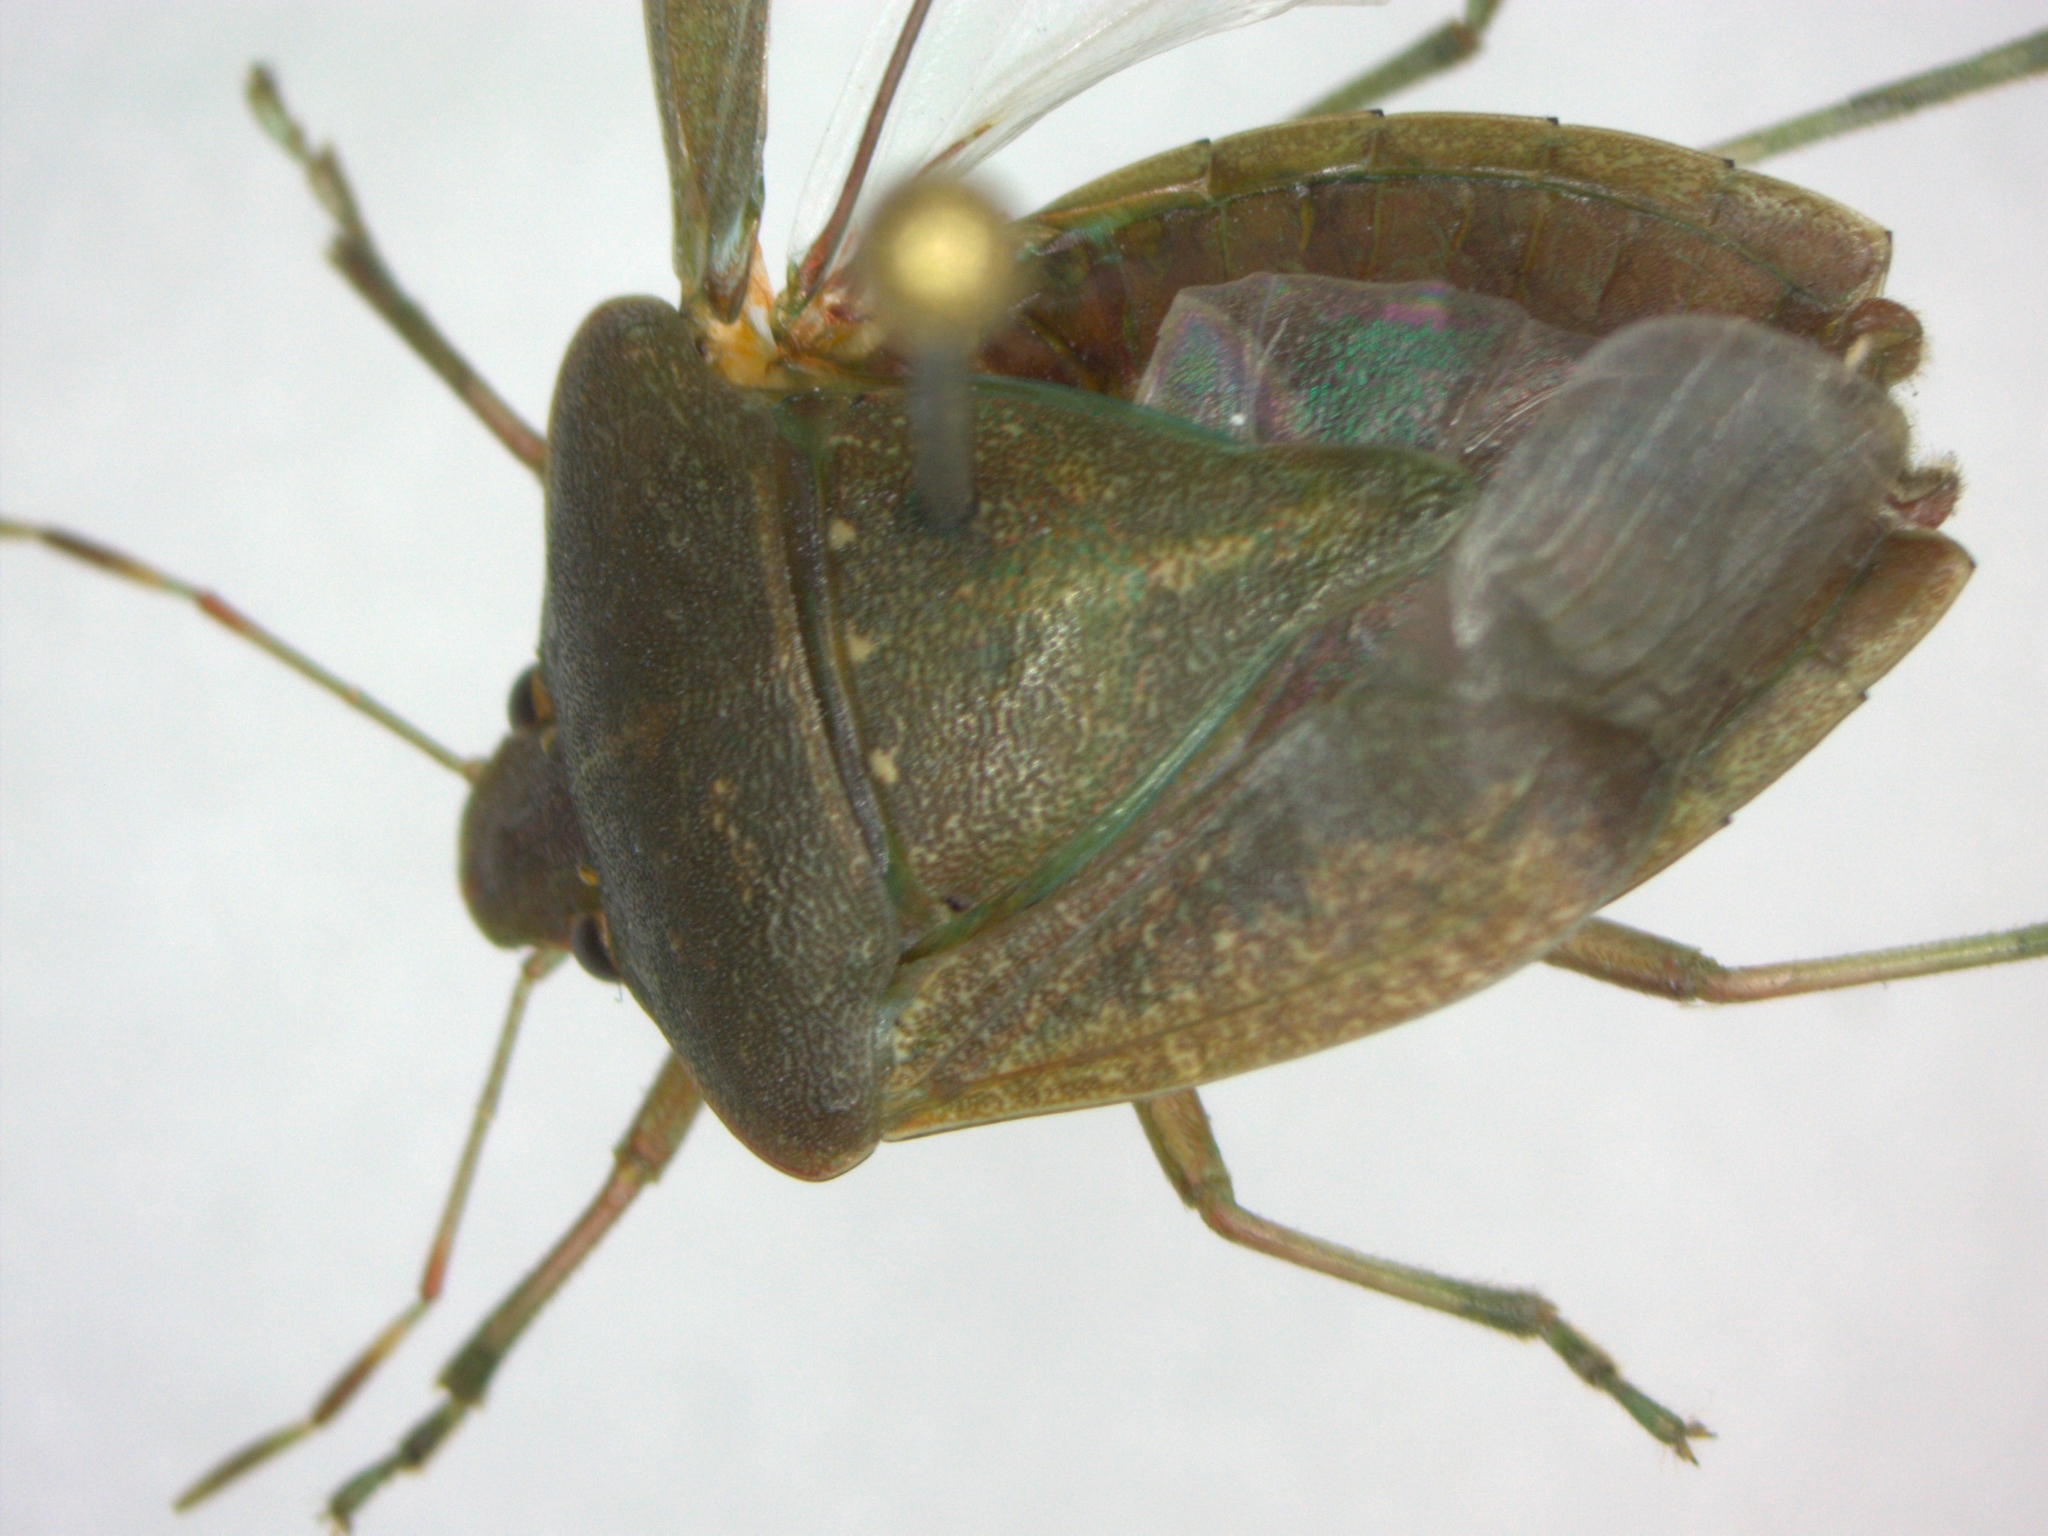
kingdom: Animalia
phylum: Arthropoda
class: Insecta
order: Hemiptera
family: Pentatomidae
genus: Nezara
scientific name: Nezara viridula
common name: Southern green stink bug
